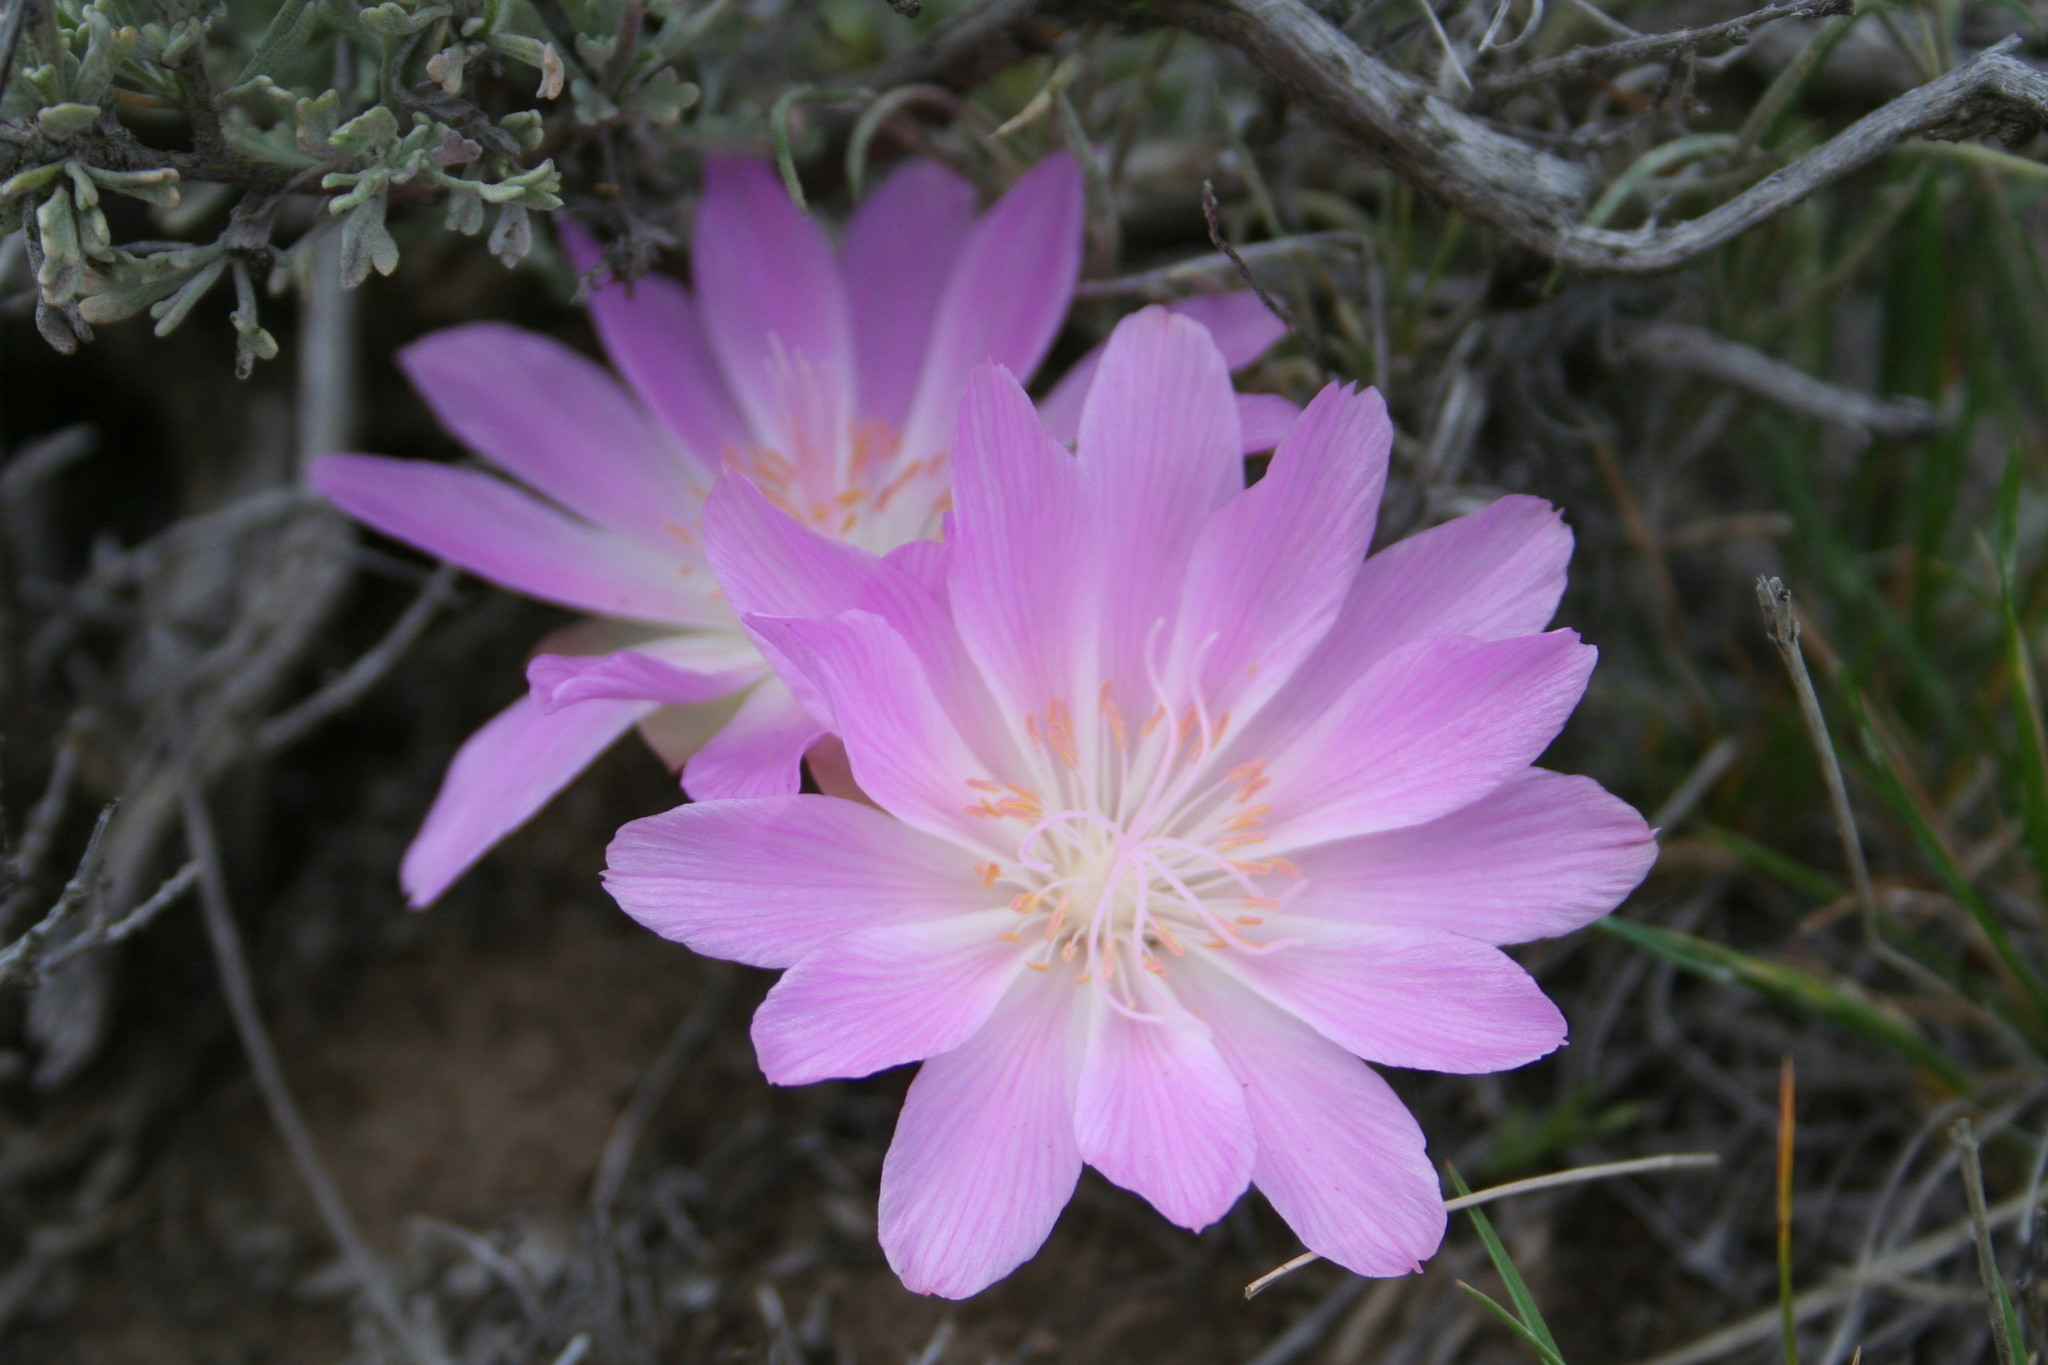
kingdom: Plantae
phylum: Tracheophyta
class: Magnoliopsida
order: Caryophyllales
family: Montiaceae
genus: Lewisia
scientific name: Lewisia rediviva
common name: Bitter-root
